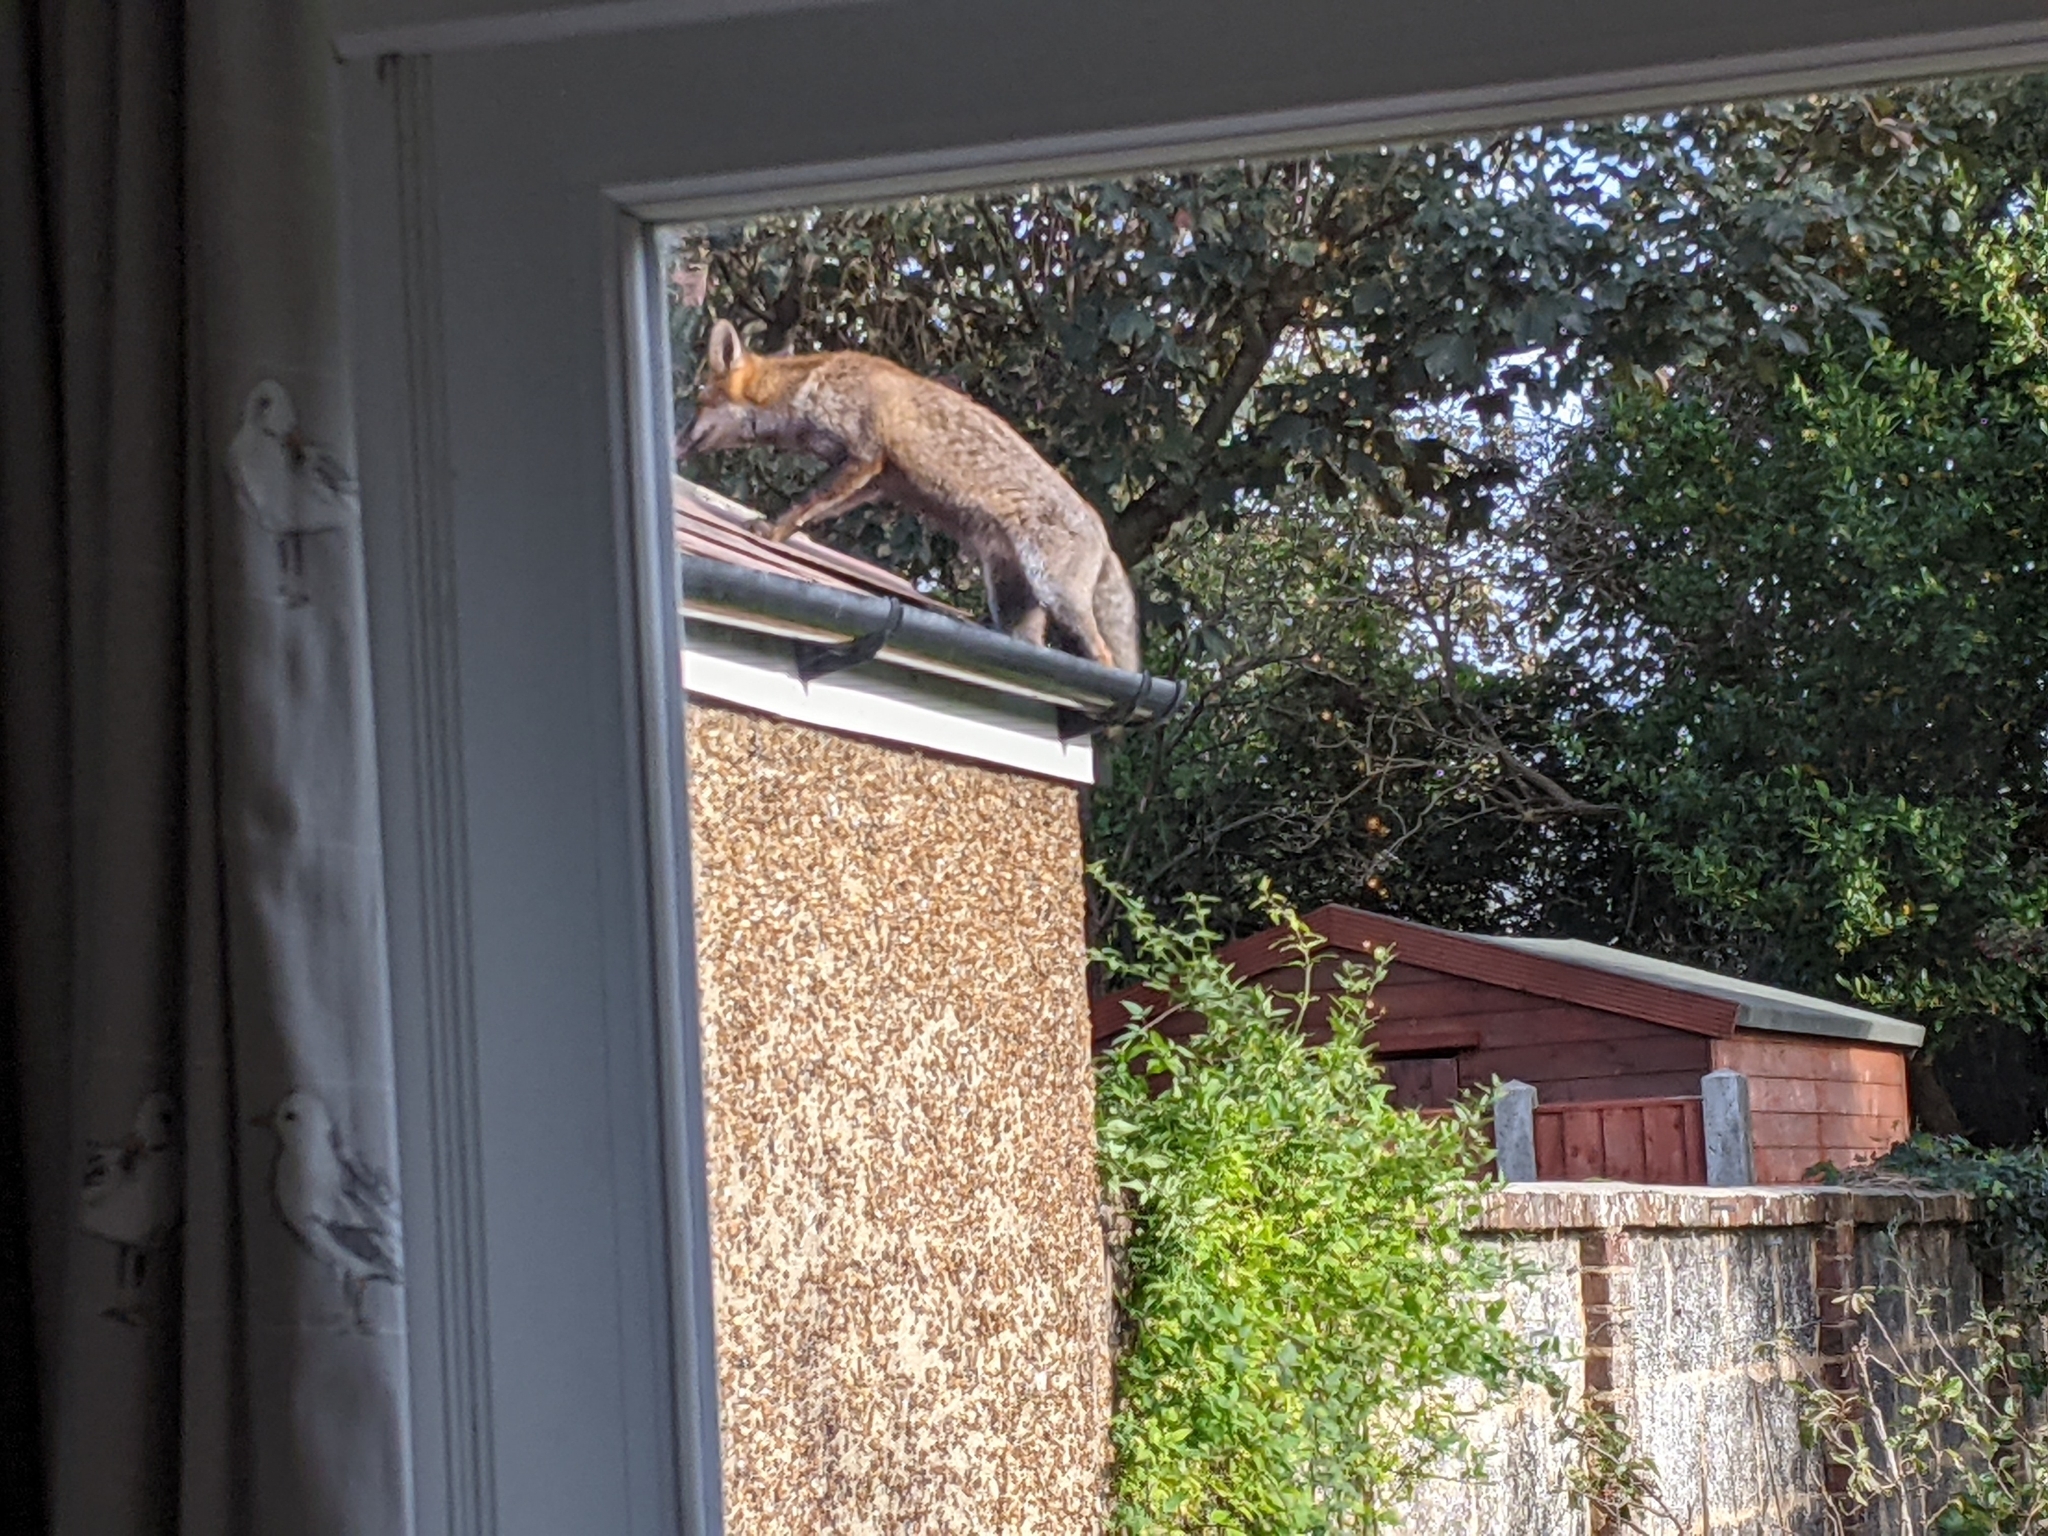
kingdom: Animalia
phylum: Chordata
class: Mammalia
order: Carnivora
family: Canidae
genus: Vulpes
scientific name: Vulpes vulpes
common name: Red fox
